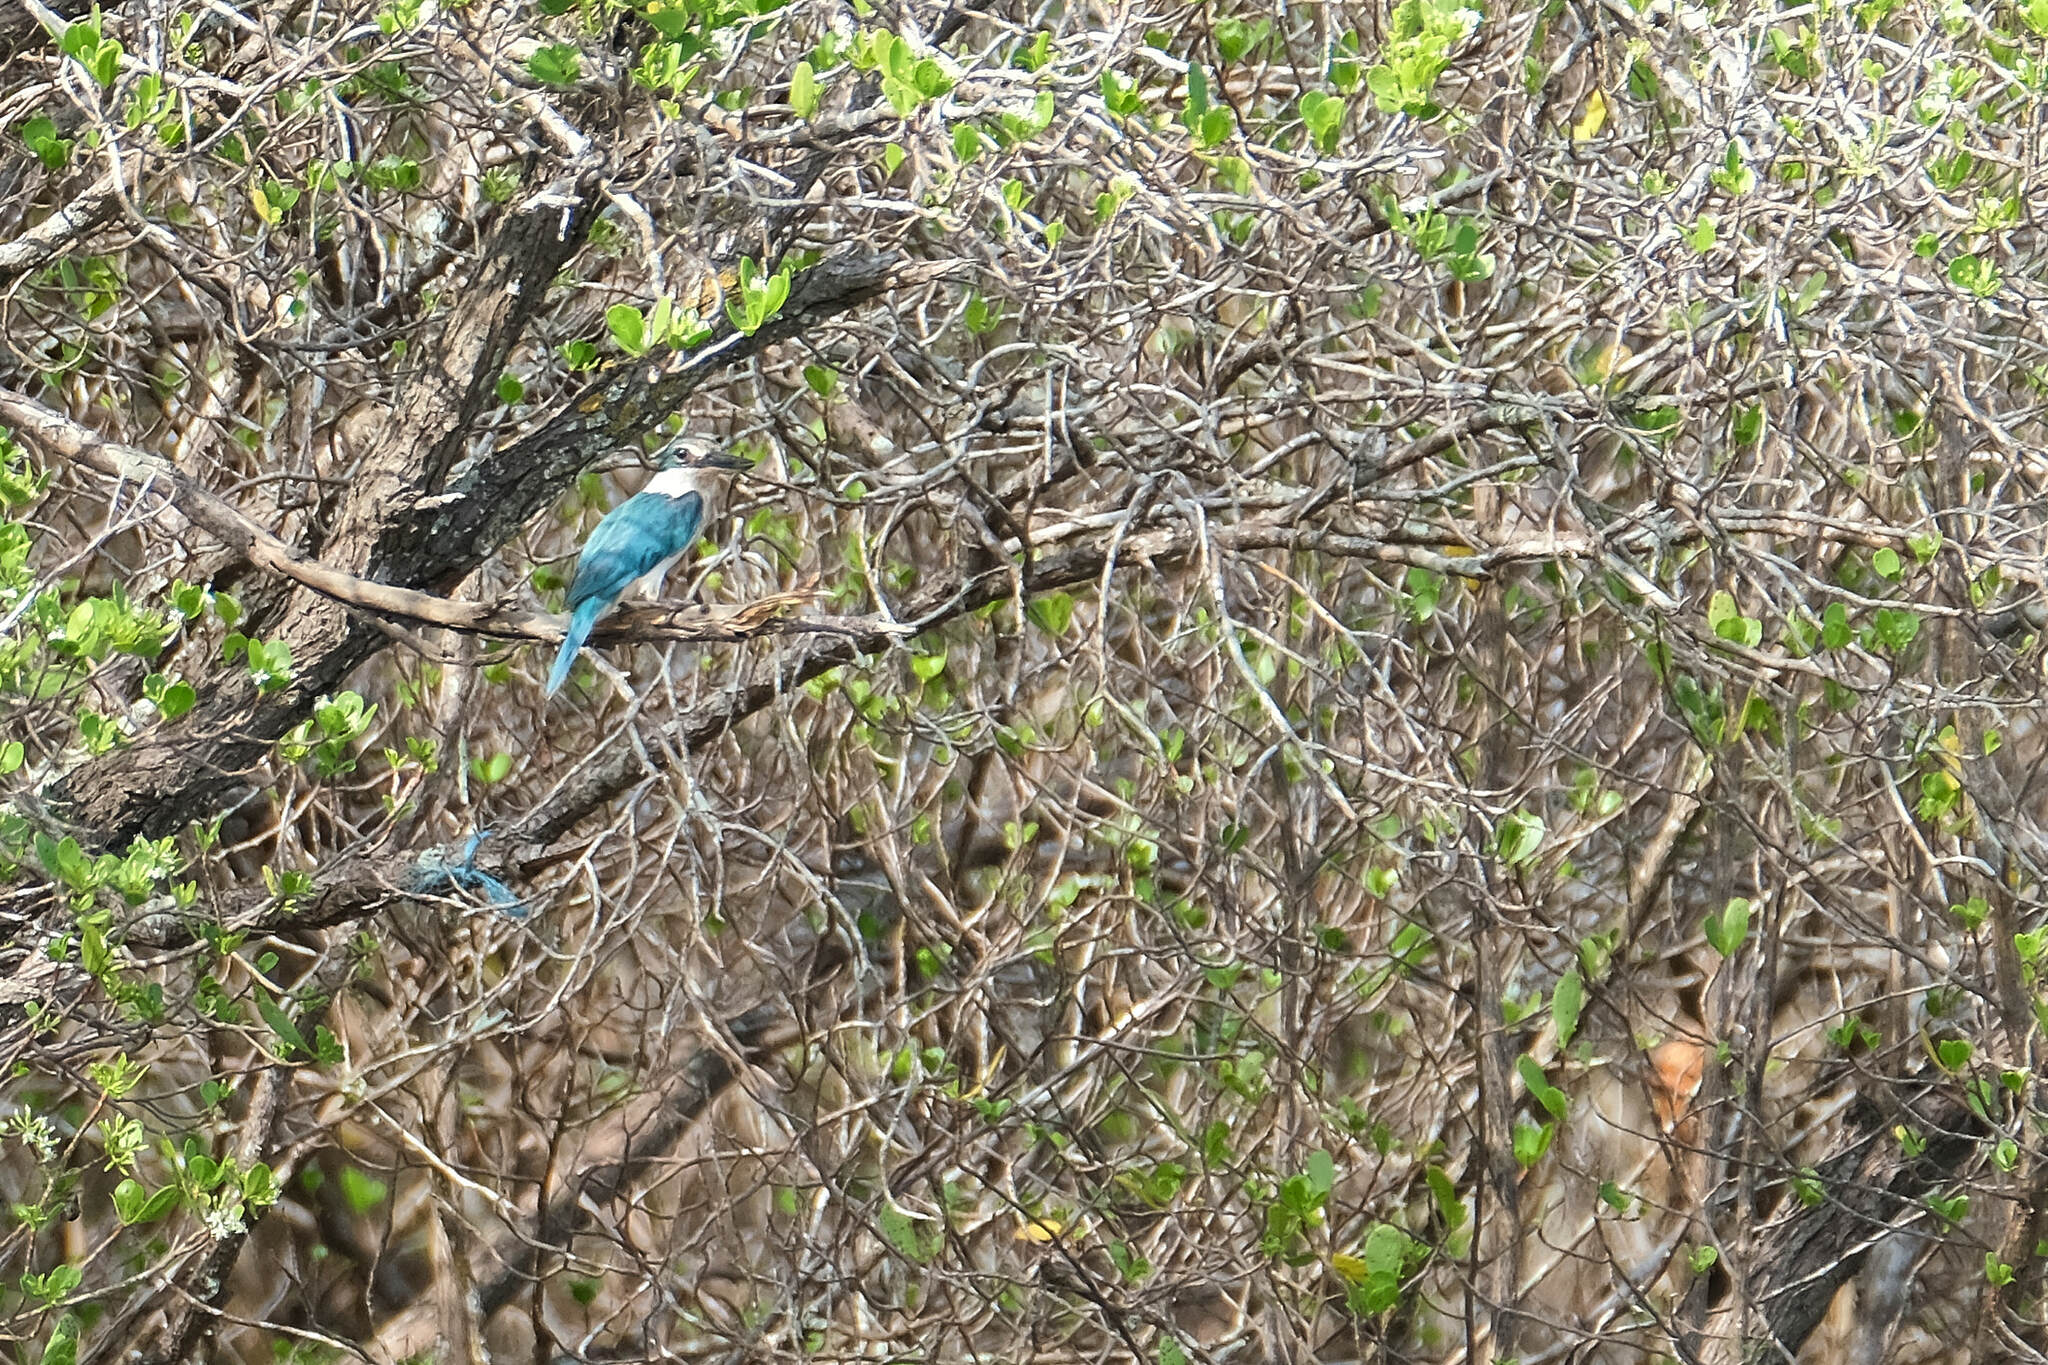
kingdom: Animalia
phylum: Chordata
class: Aves
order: Coraciiformes
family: Alcedinidae
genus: Todiramphus
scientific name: Todiramphus chloris
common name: Collared kingfisher
